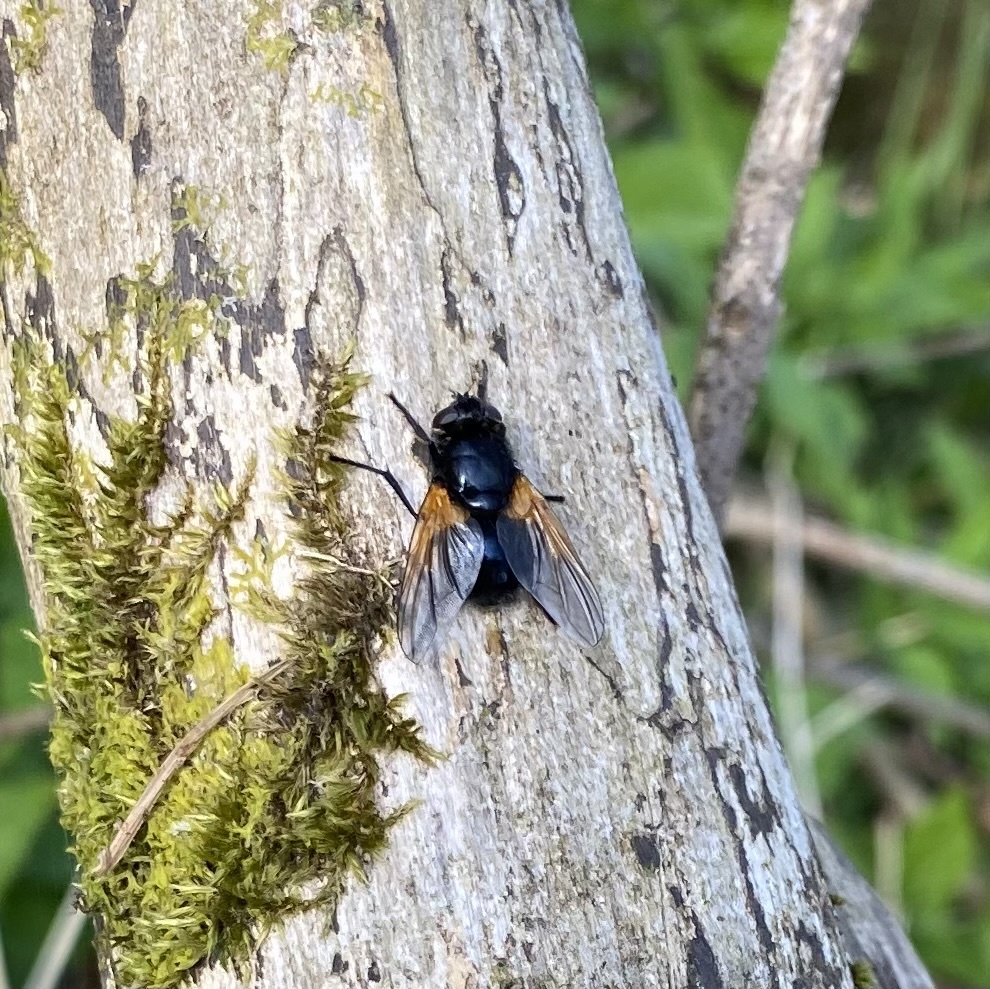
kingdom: Animalia
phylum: Arthropoda
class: Insecta
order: Diptera
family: Muscidae
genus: Mesembrina
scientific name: Mesembrina meridiana
